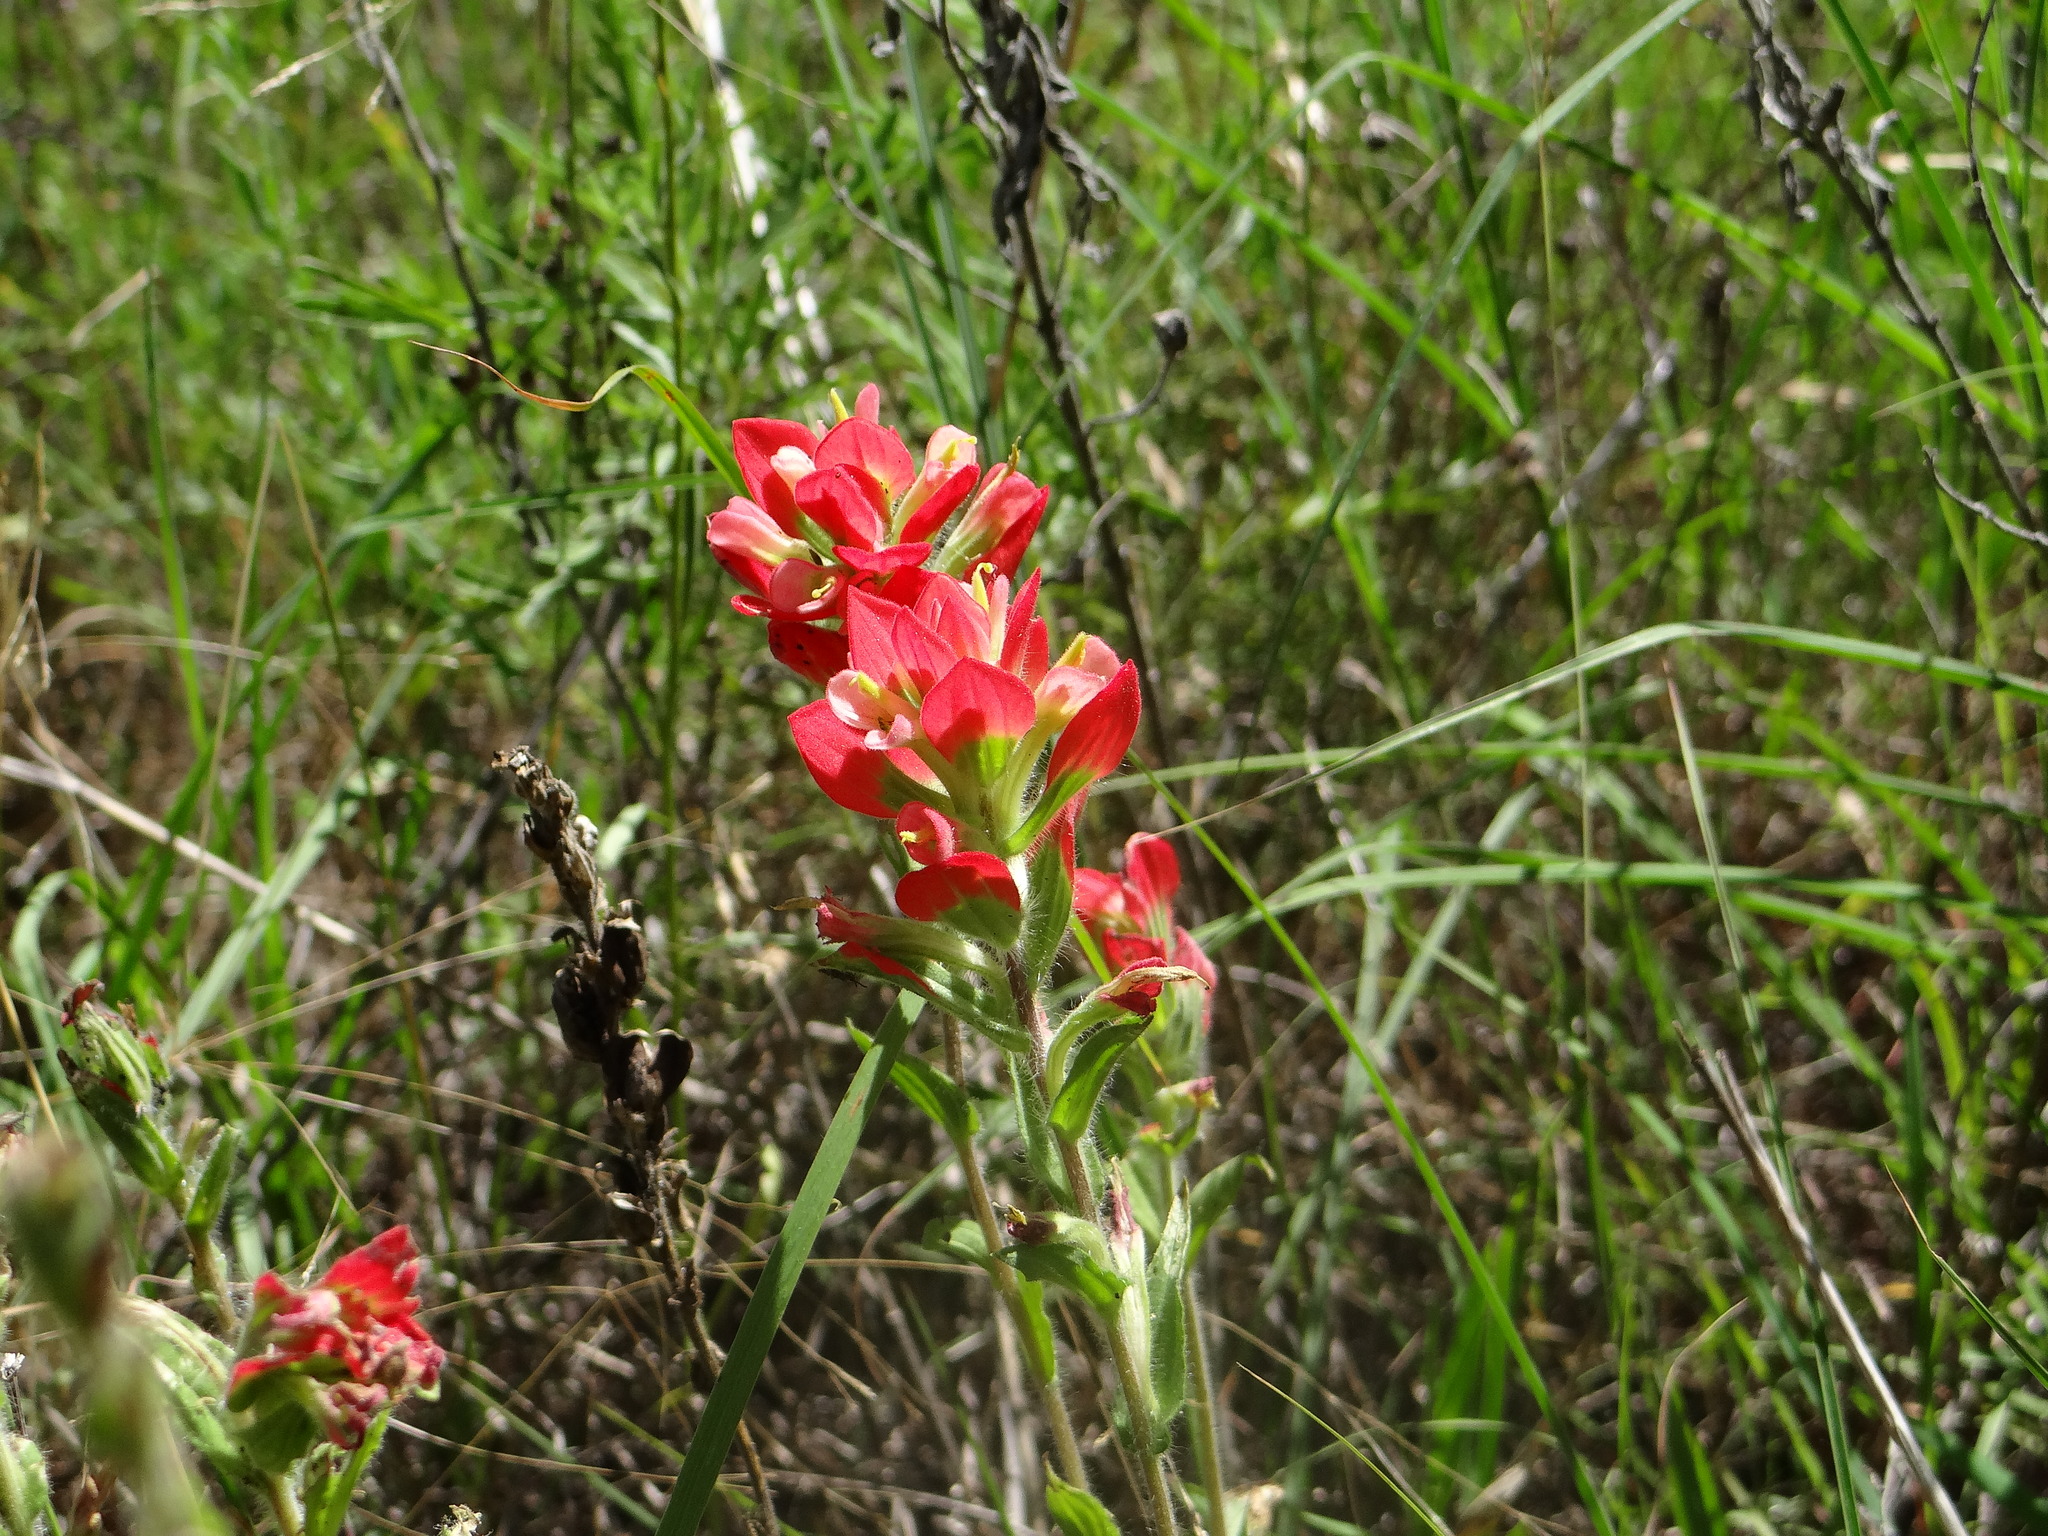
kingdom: Plantae
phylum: Tracheophyta
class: Magnoliopsida
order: Lamiales
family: Orobanchaceae
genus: Castilleja
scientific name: Castilleja indivisa
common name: Texas paintbrush
